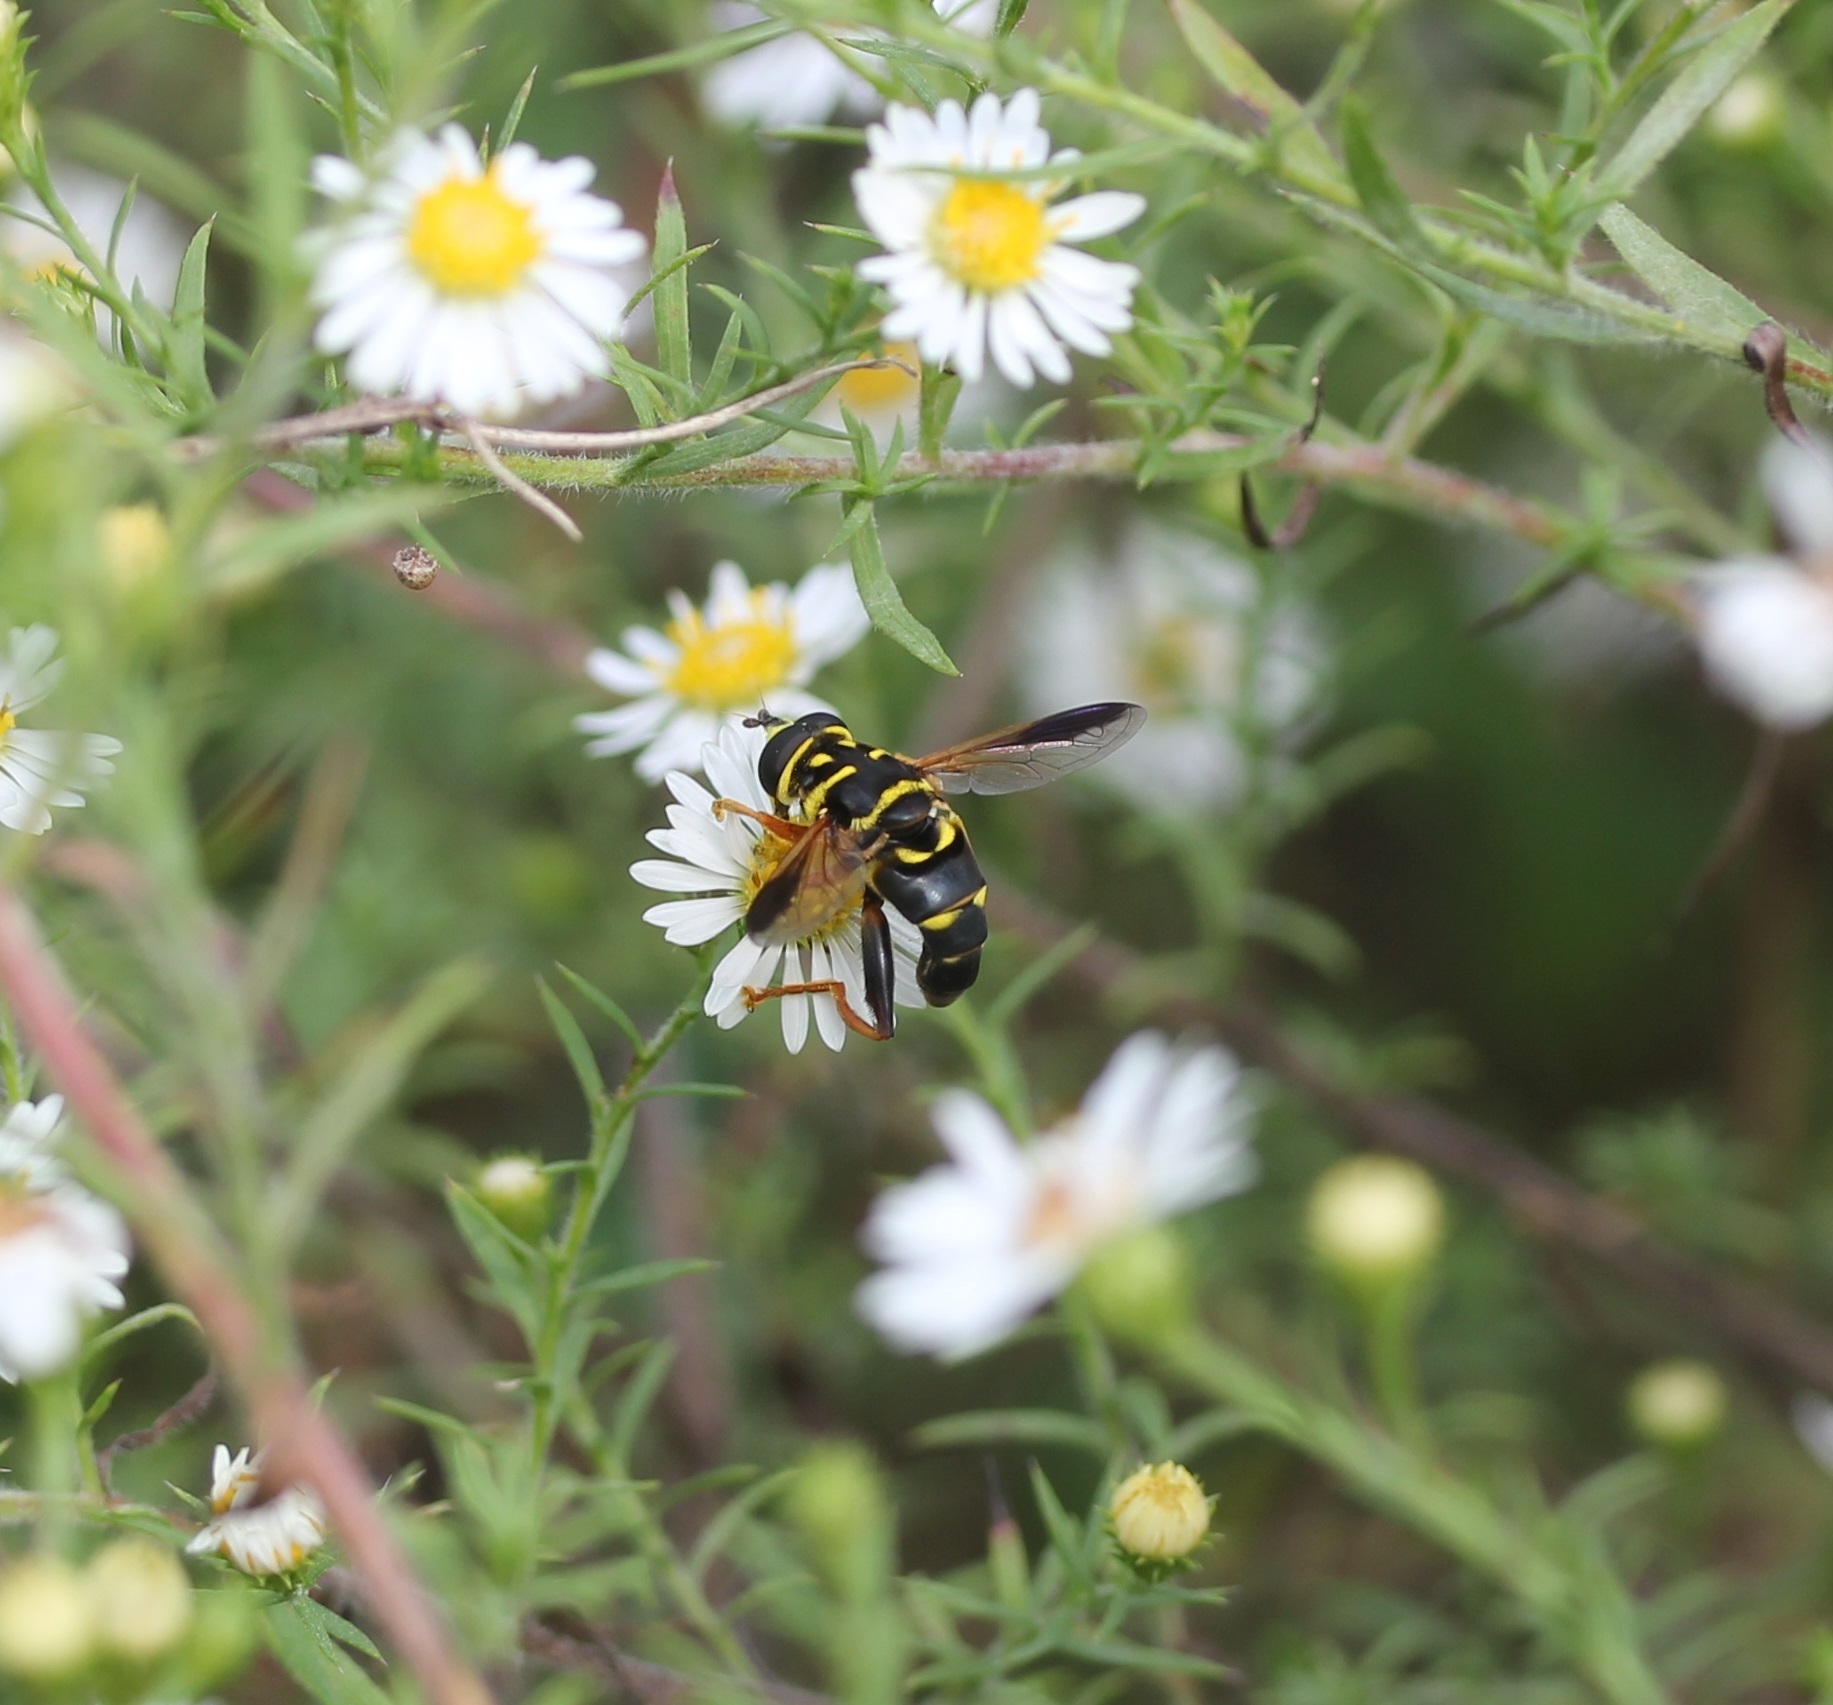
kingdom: Animalia
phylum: Arthropoda
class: Insecta
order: Diptera
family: Syrphidae
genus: Meromacrus
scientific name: Meromacrus acutus
